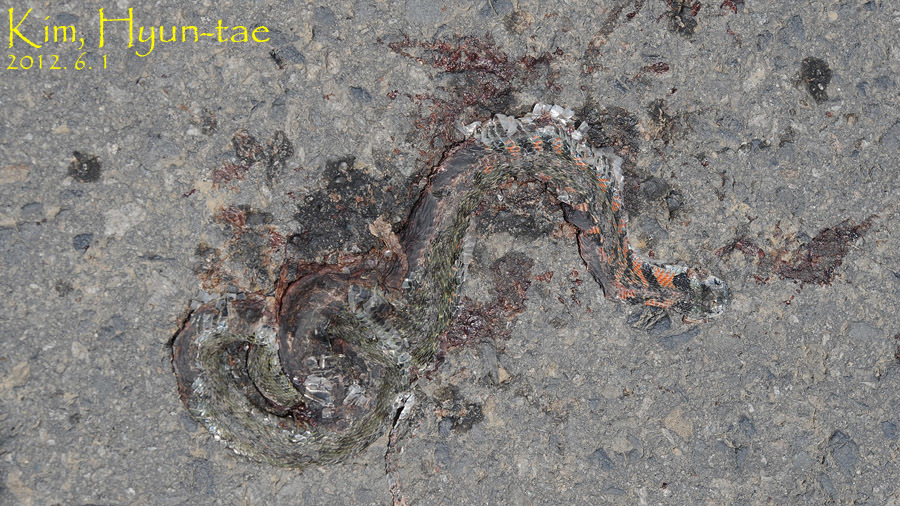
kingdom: Animalia
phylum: Chordata
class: Squamata
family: Colubridae
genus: Rhabdophis
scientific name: Rhabdophis tigrinus
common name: Tiger keelback
